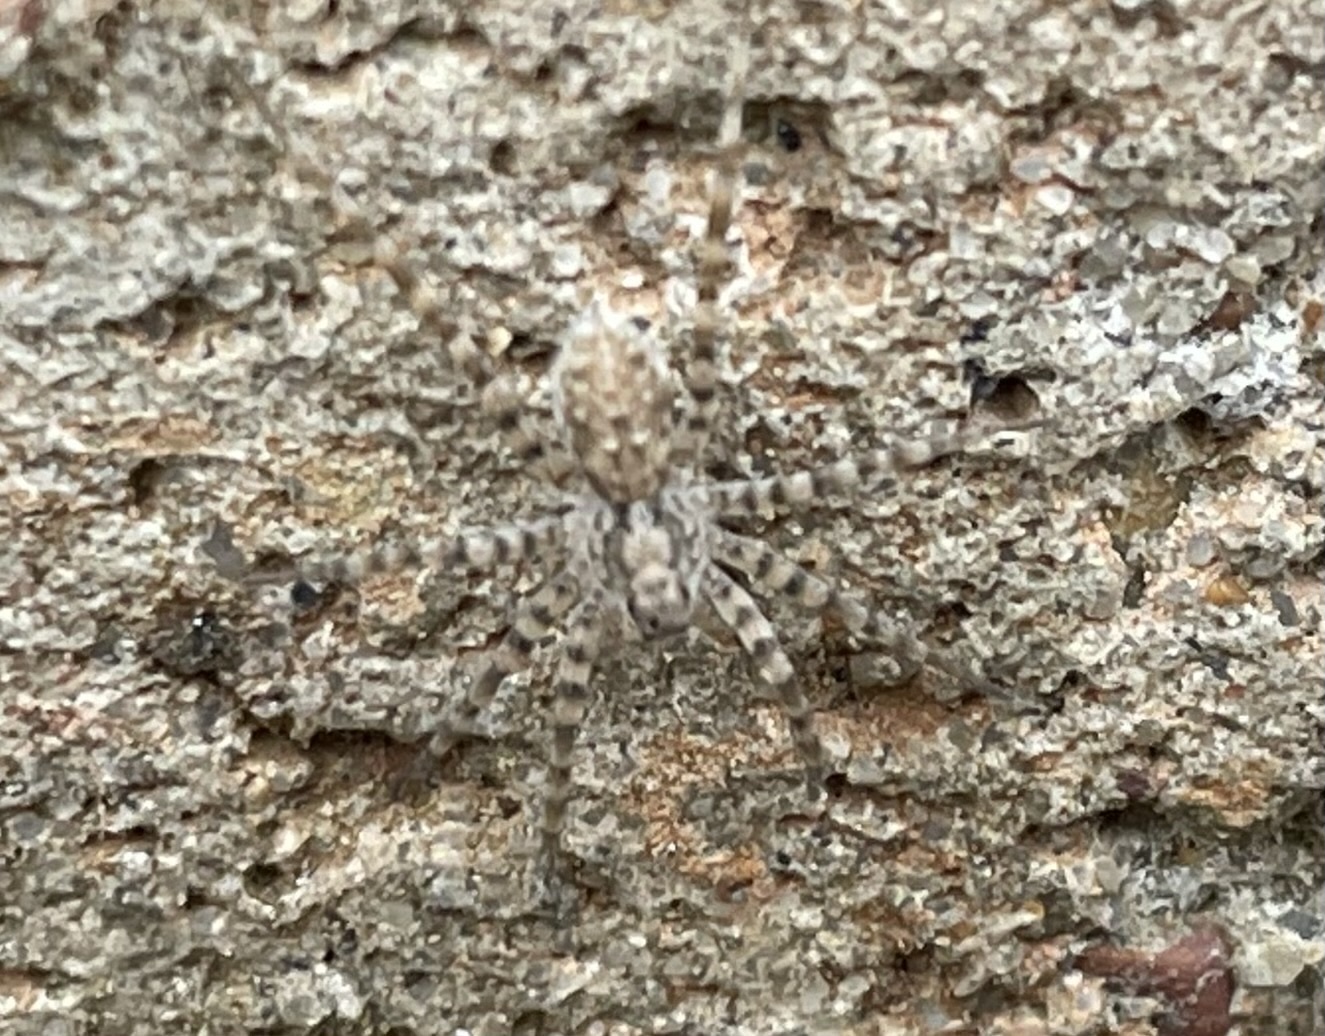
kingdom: Animalia
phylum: Arthropoda
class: Arachnida
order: Araneae
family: Lycosidae
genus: Pardosa
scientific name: Pardosa mercurialis
